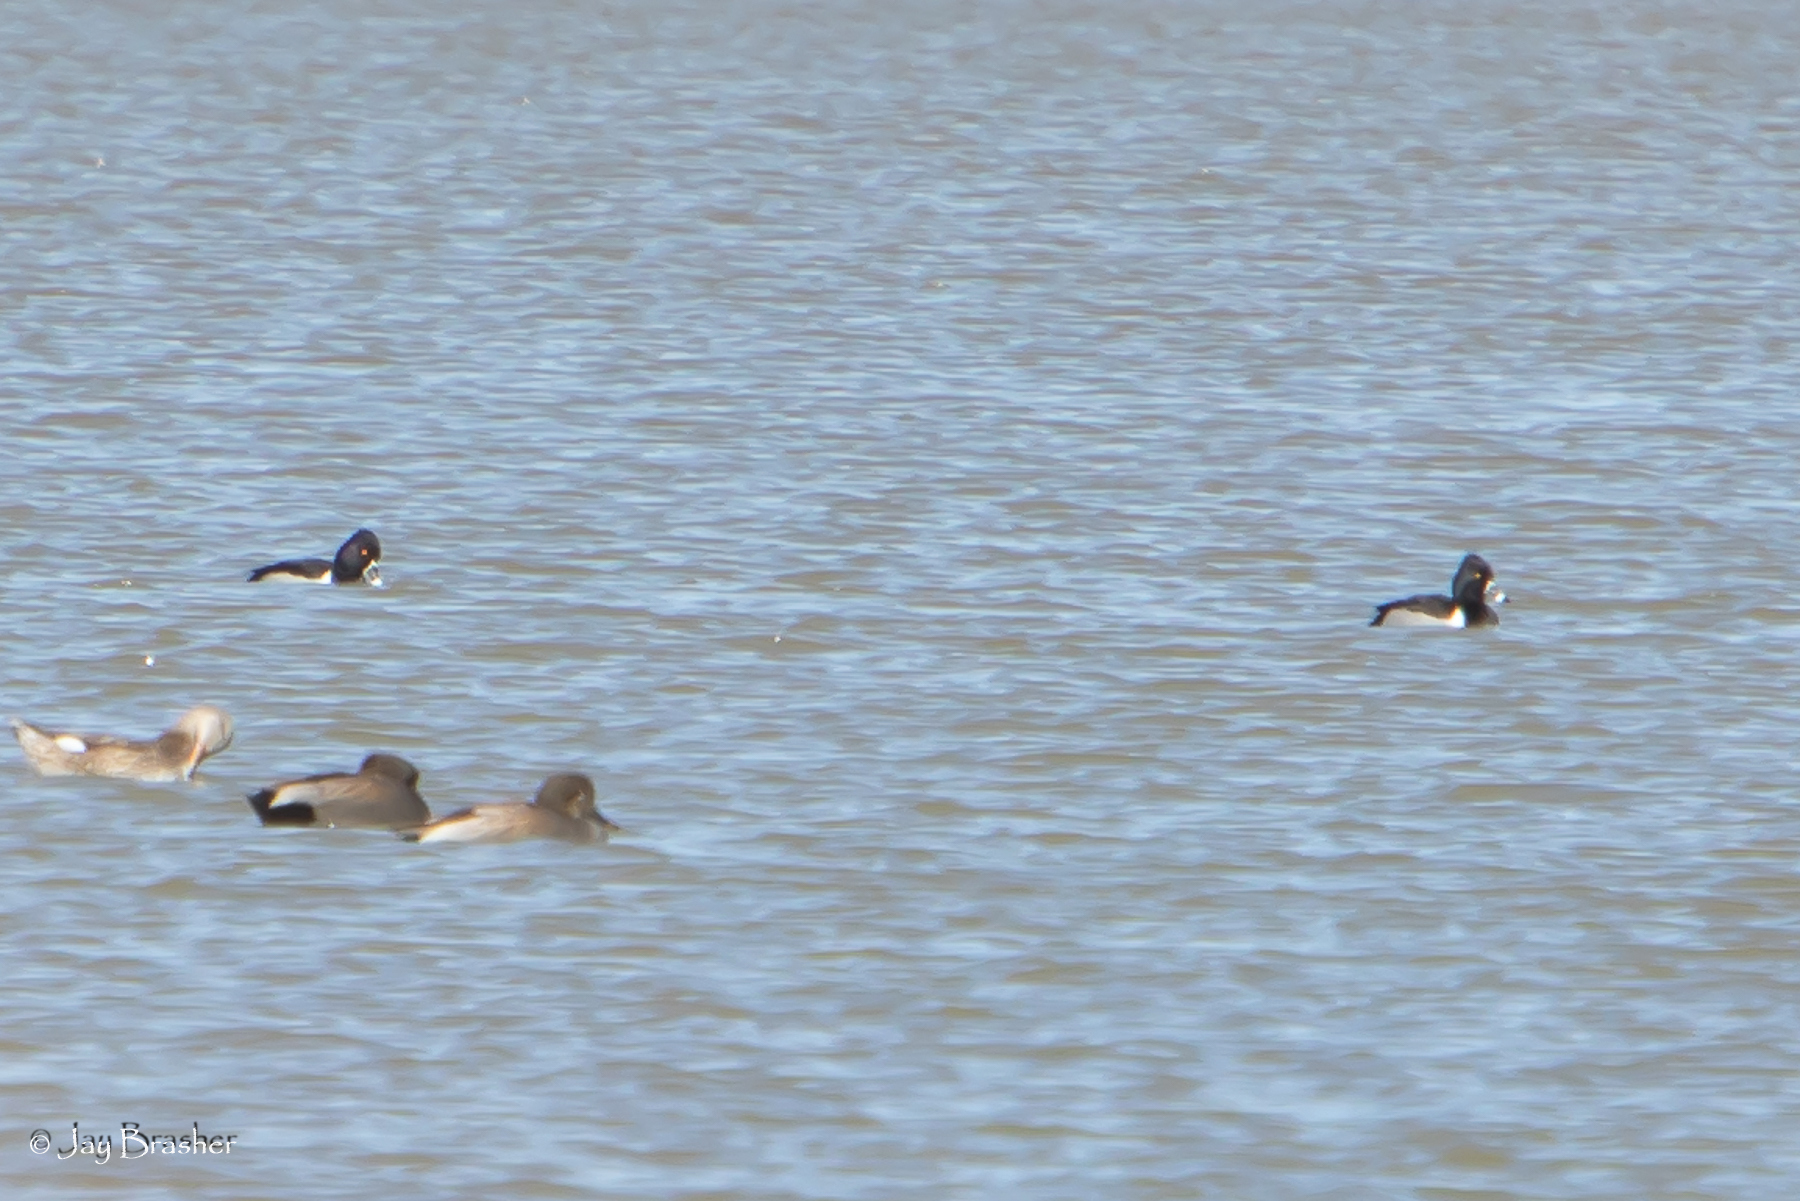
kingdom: Animalia
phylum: Chordata
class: Aves
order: Anseriformes
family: Anatidae
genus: Aythya
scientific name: Aythya collaris
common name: Ring-necked duck
